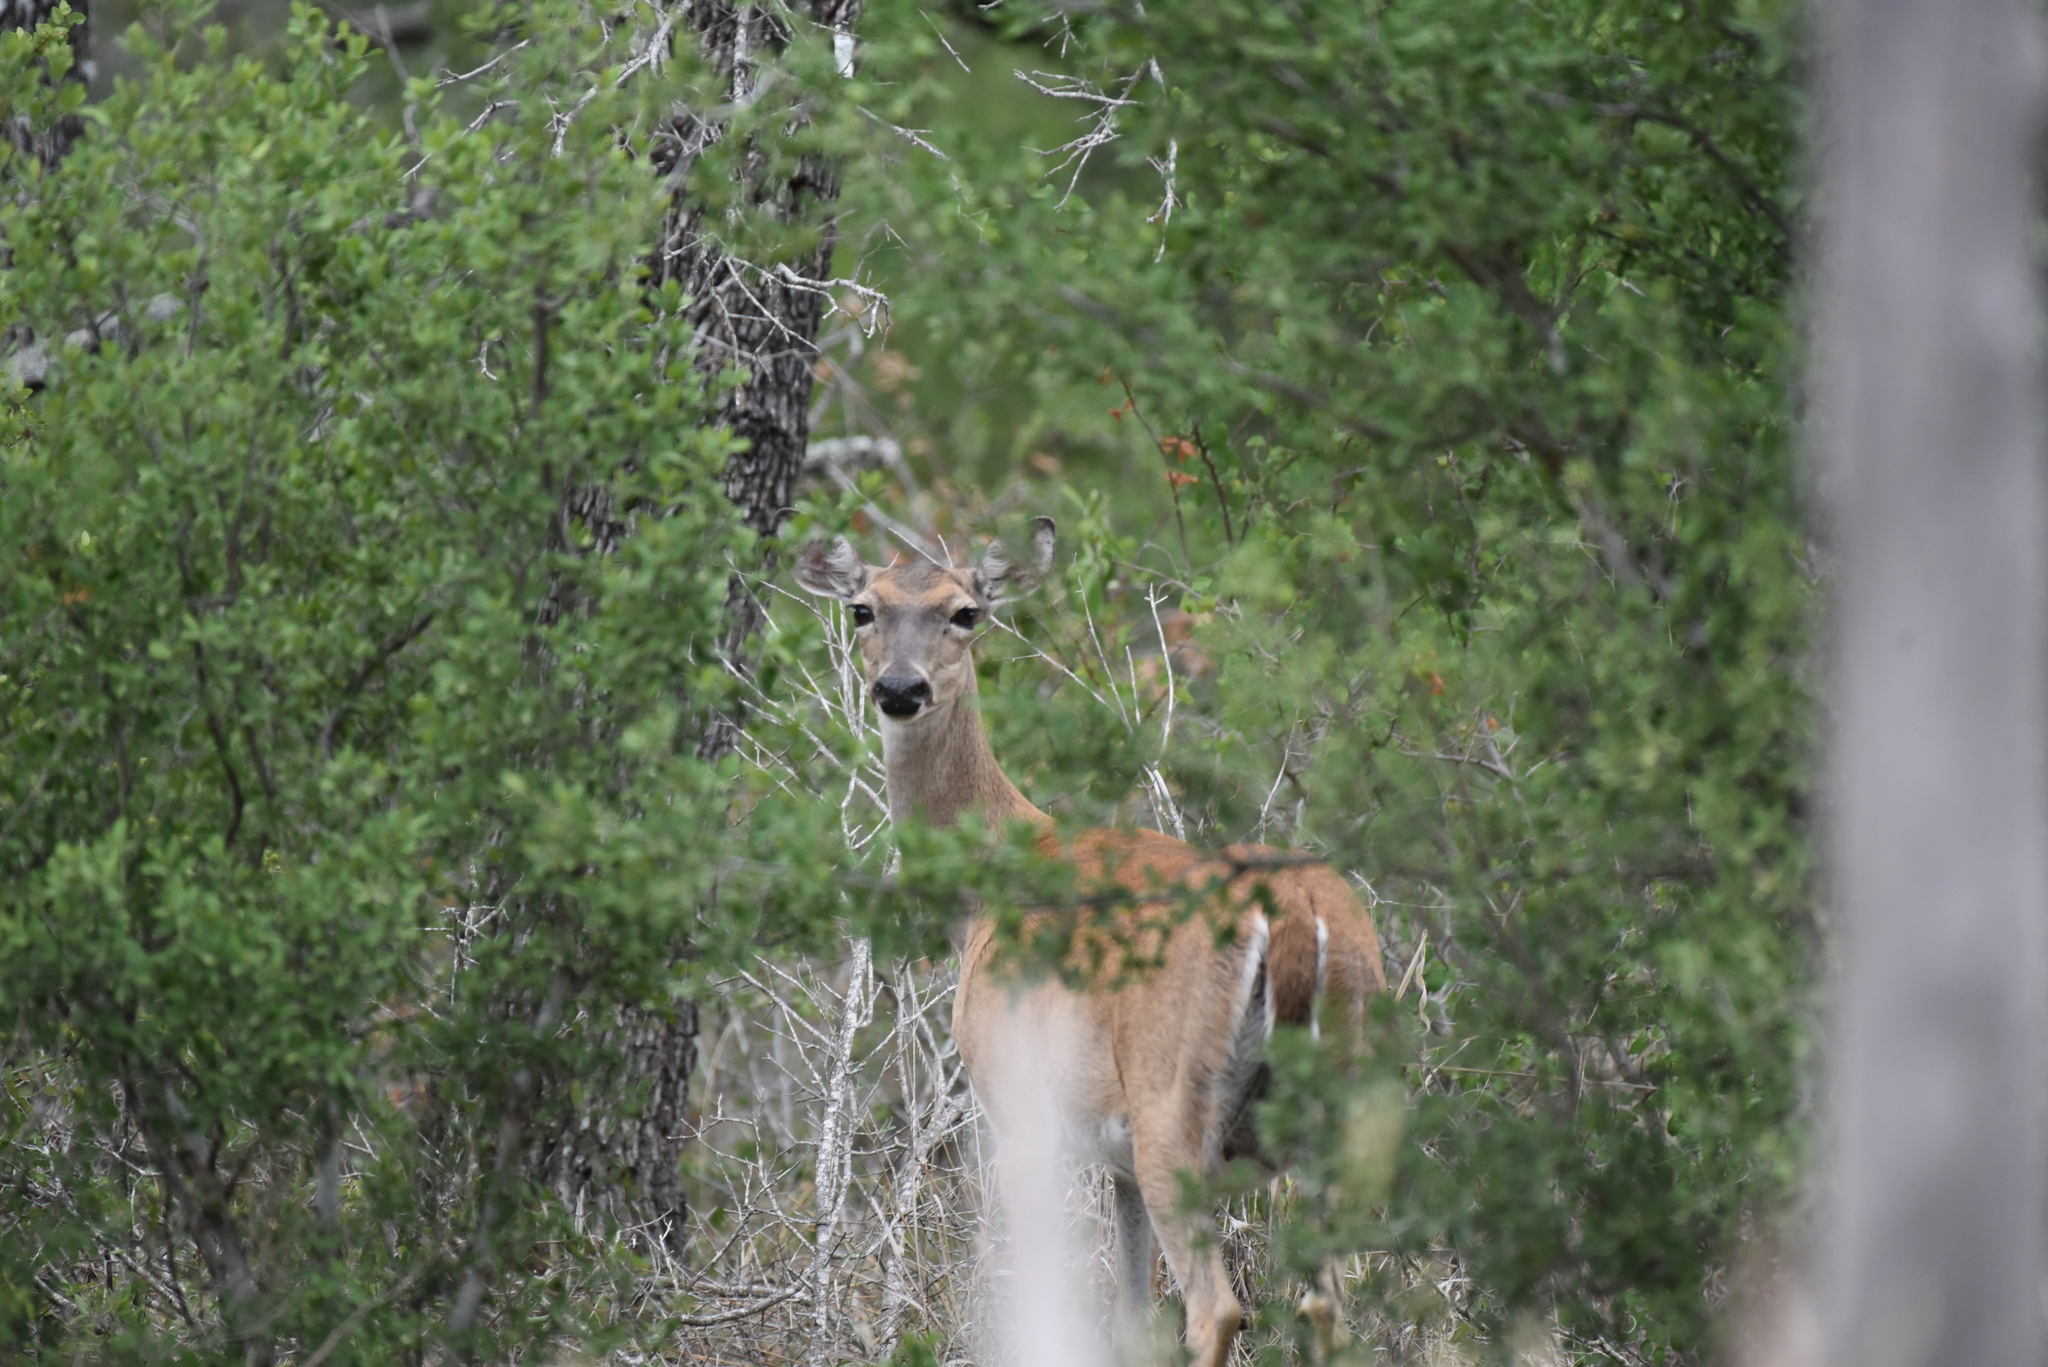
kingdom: Animalia
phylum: Chordata
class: Mammalia
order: Artiodactyla
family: Cervidae
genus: Odocoileus
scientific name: Odocoileus virginianus
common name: White-tailed deer
